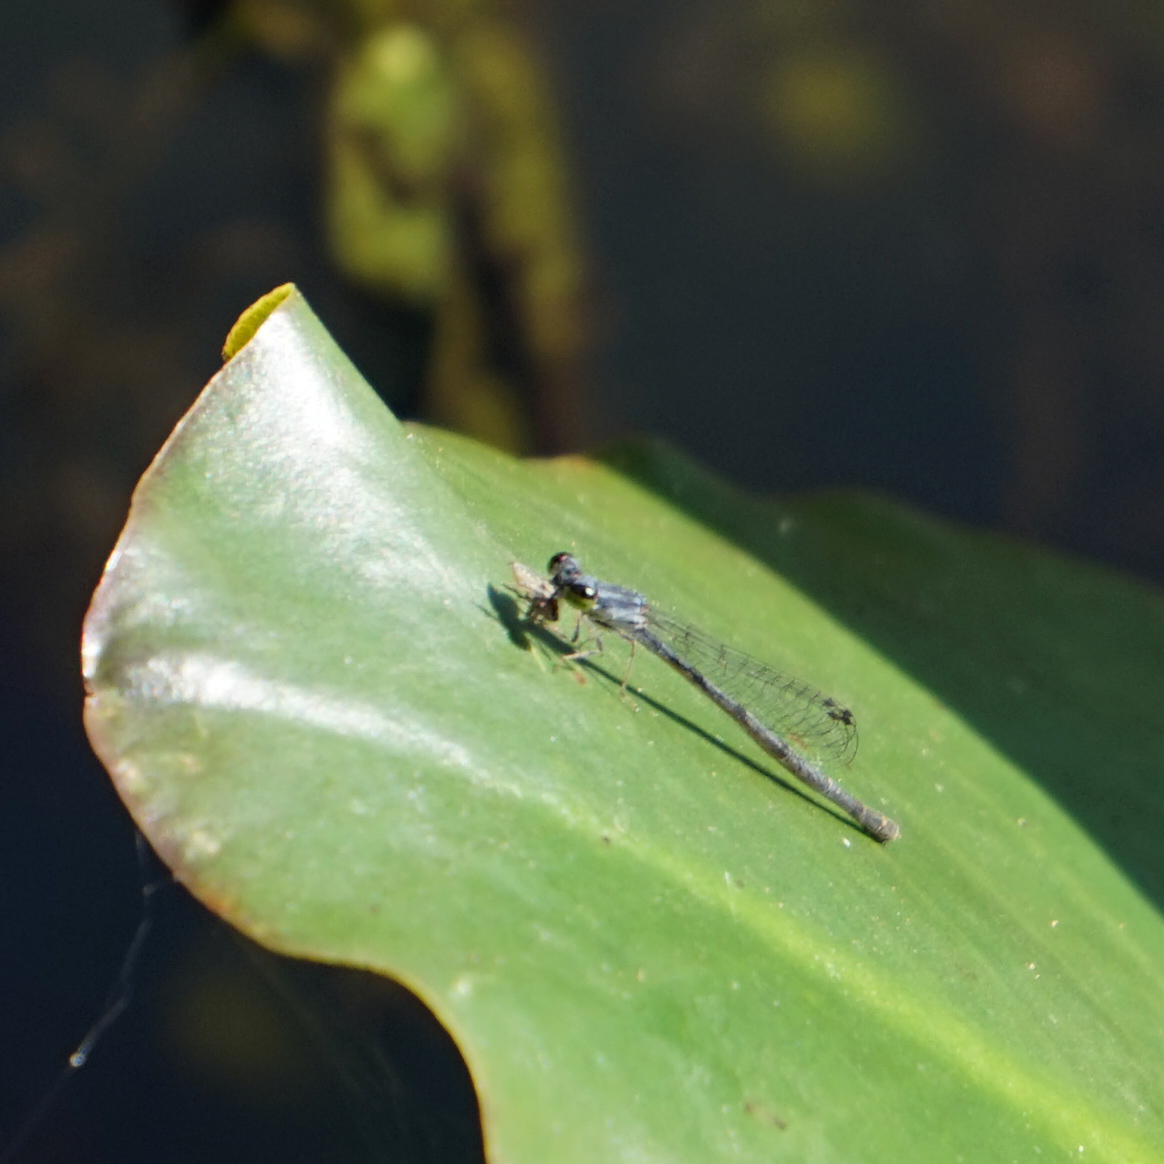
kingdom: Animalia
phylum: Arthropoda
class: Insecta
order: Odonata
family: Coenagrionidae
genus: Ischnura
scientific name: Ischnura posita
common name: Fragile forktail
